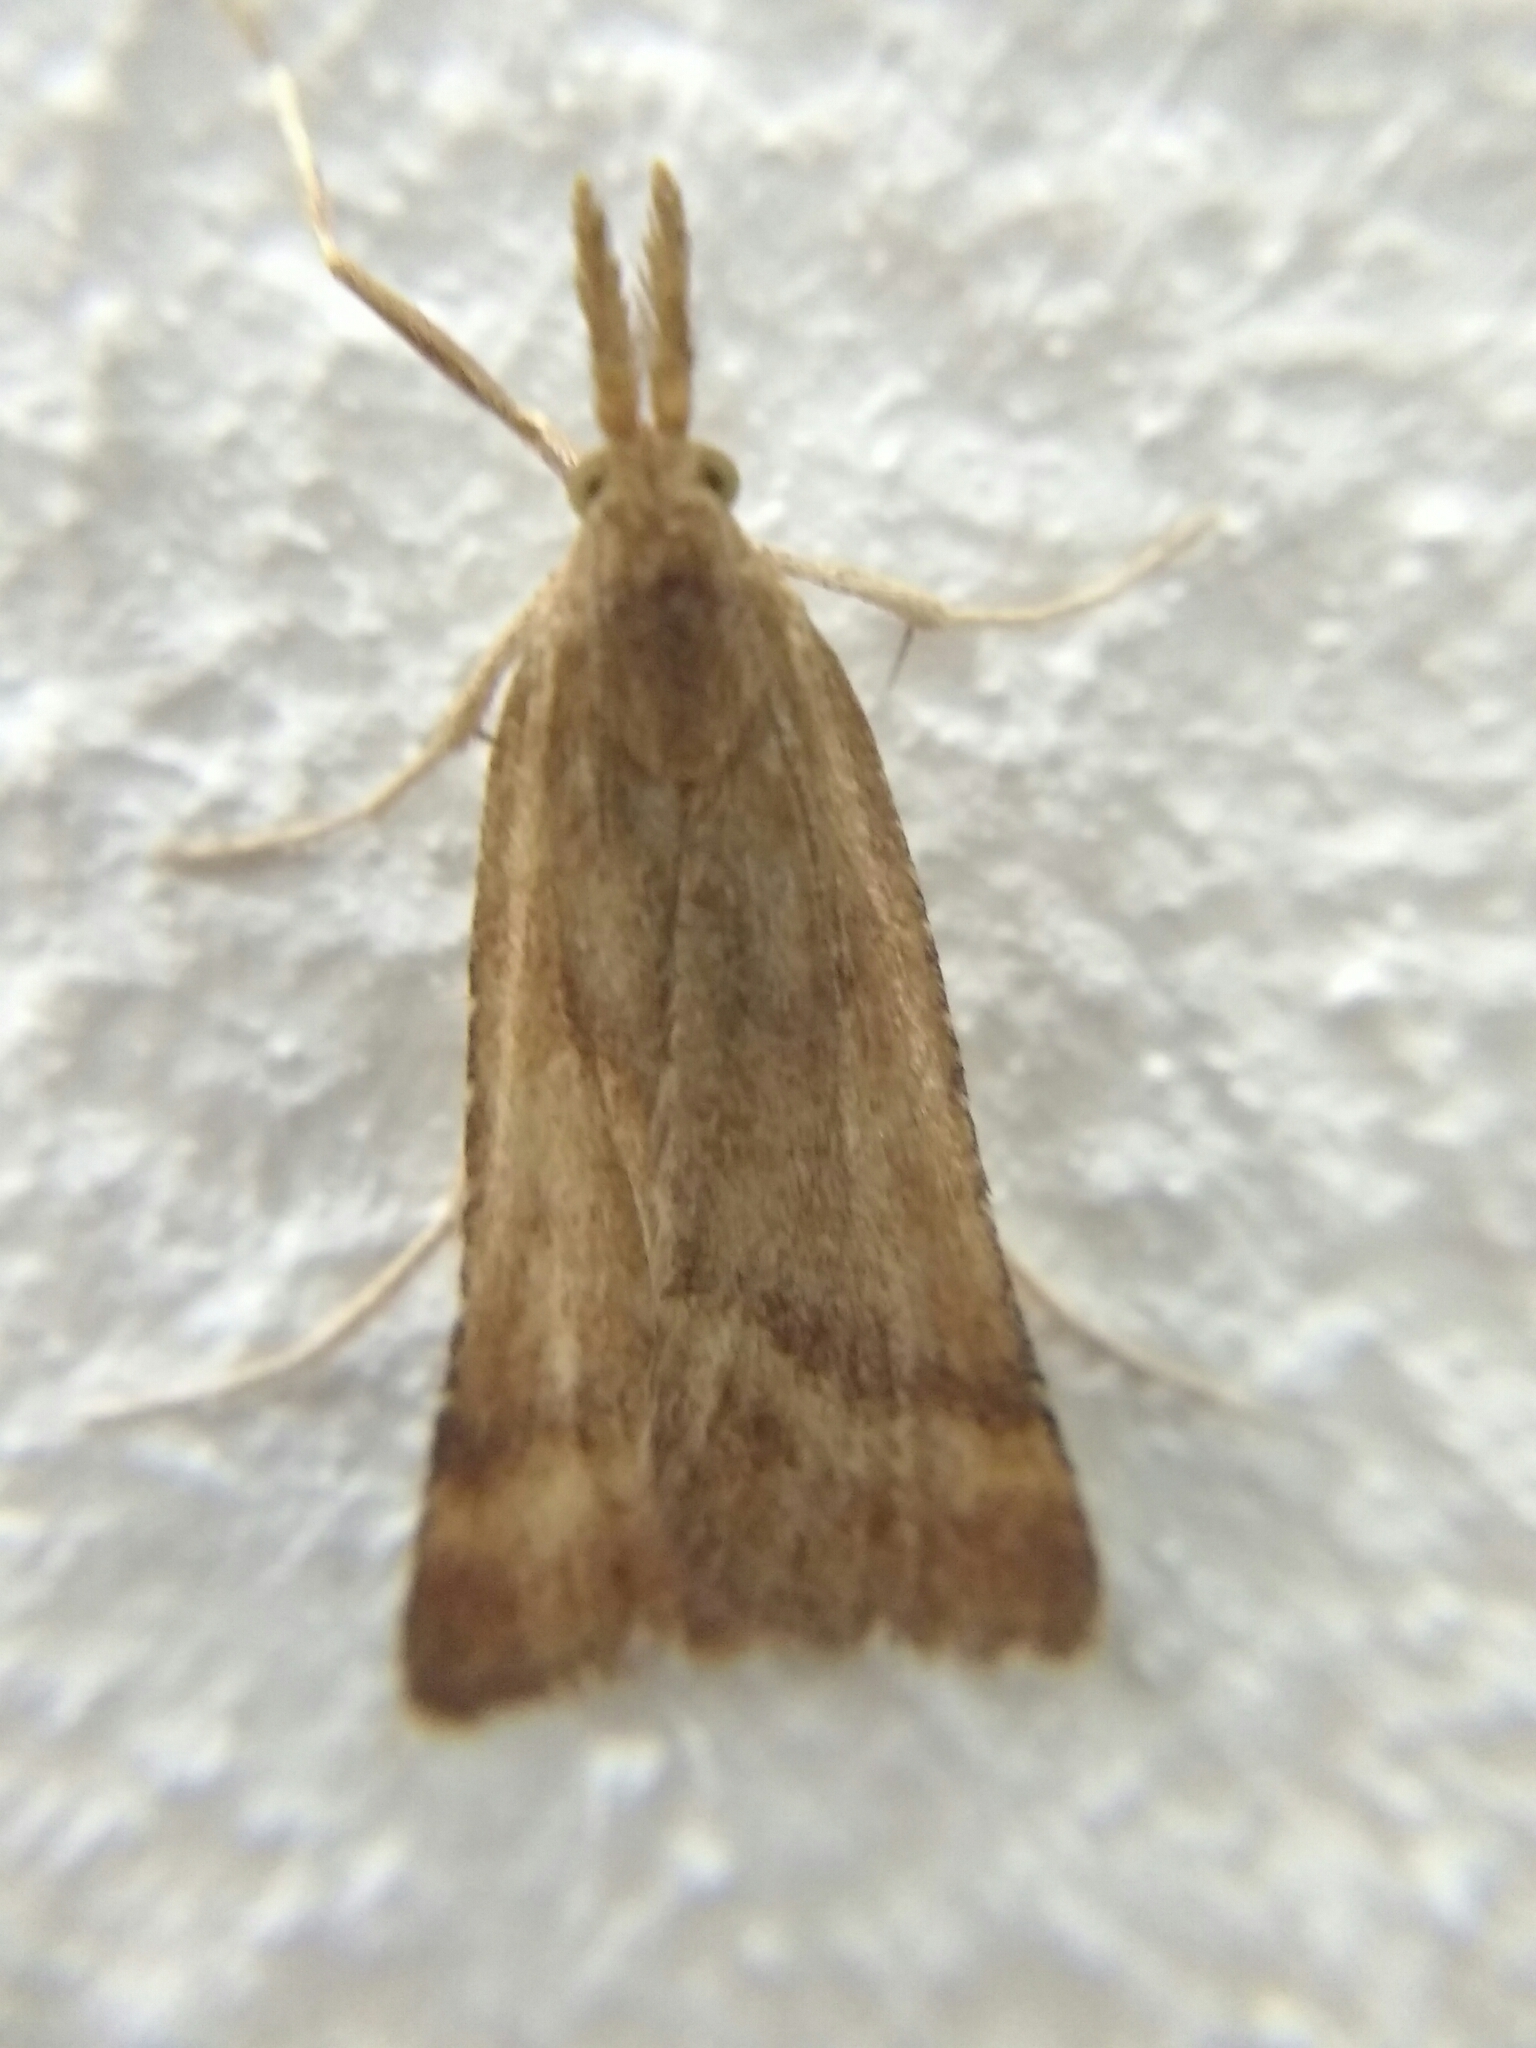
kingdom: Animalia
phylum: Arthropoda
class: Insecta
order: Lepidoptera
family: Pyralidae
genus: Synaphe
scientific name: Synaphe punctalis
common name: Long-legged tabby
